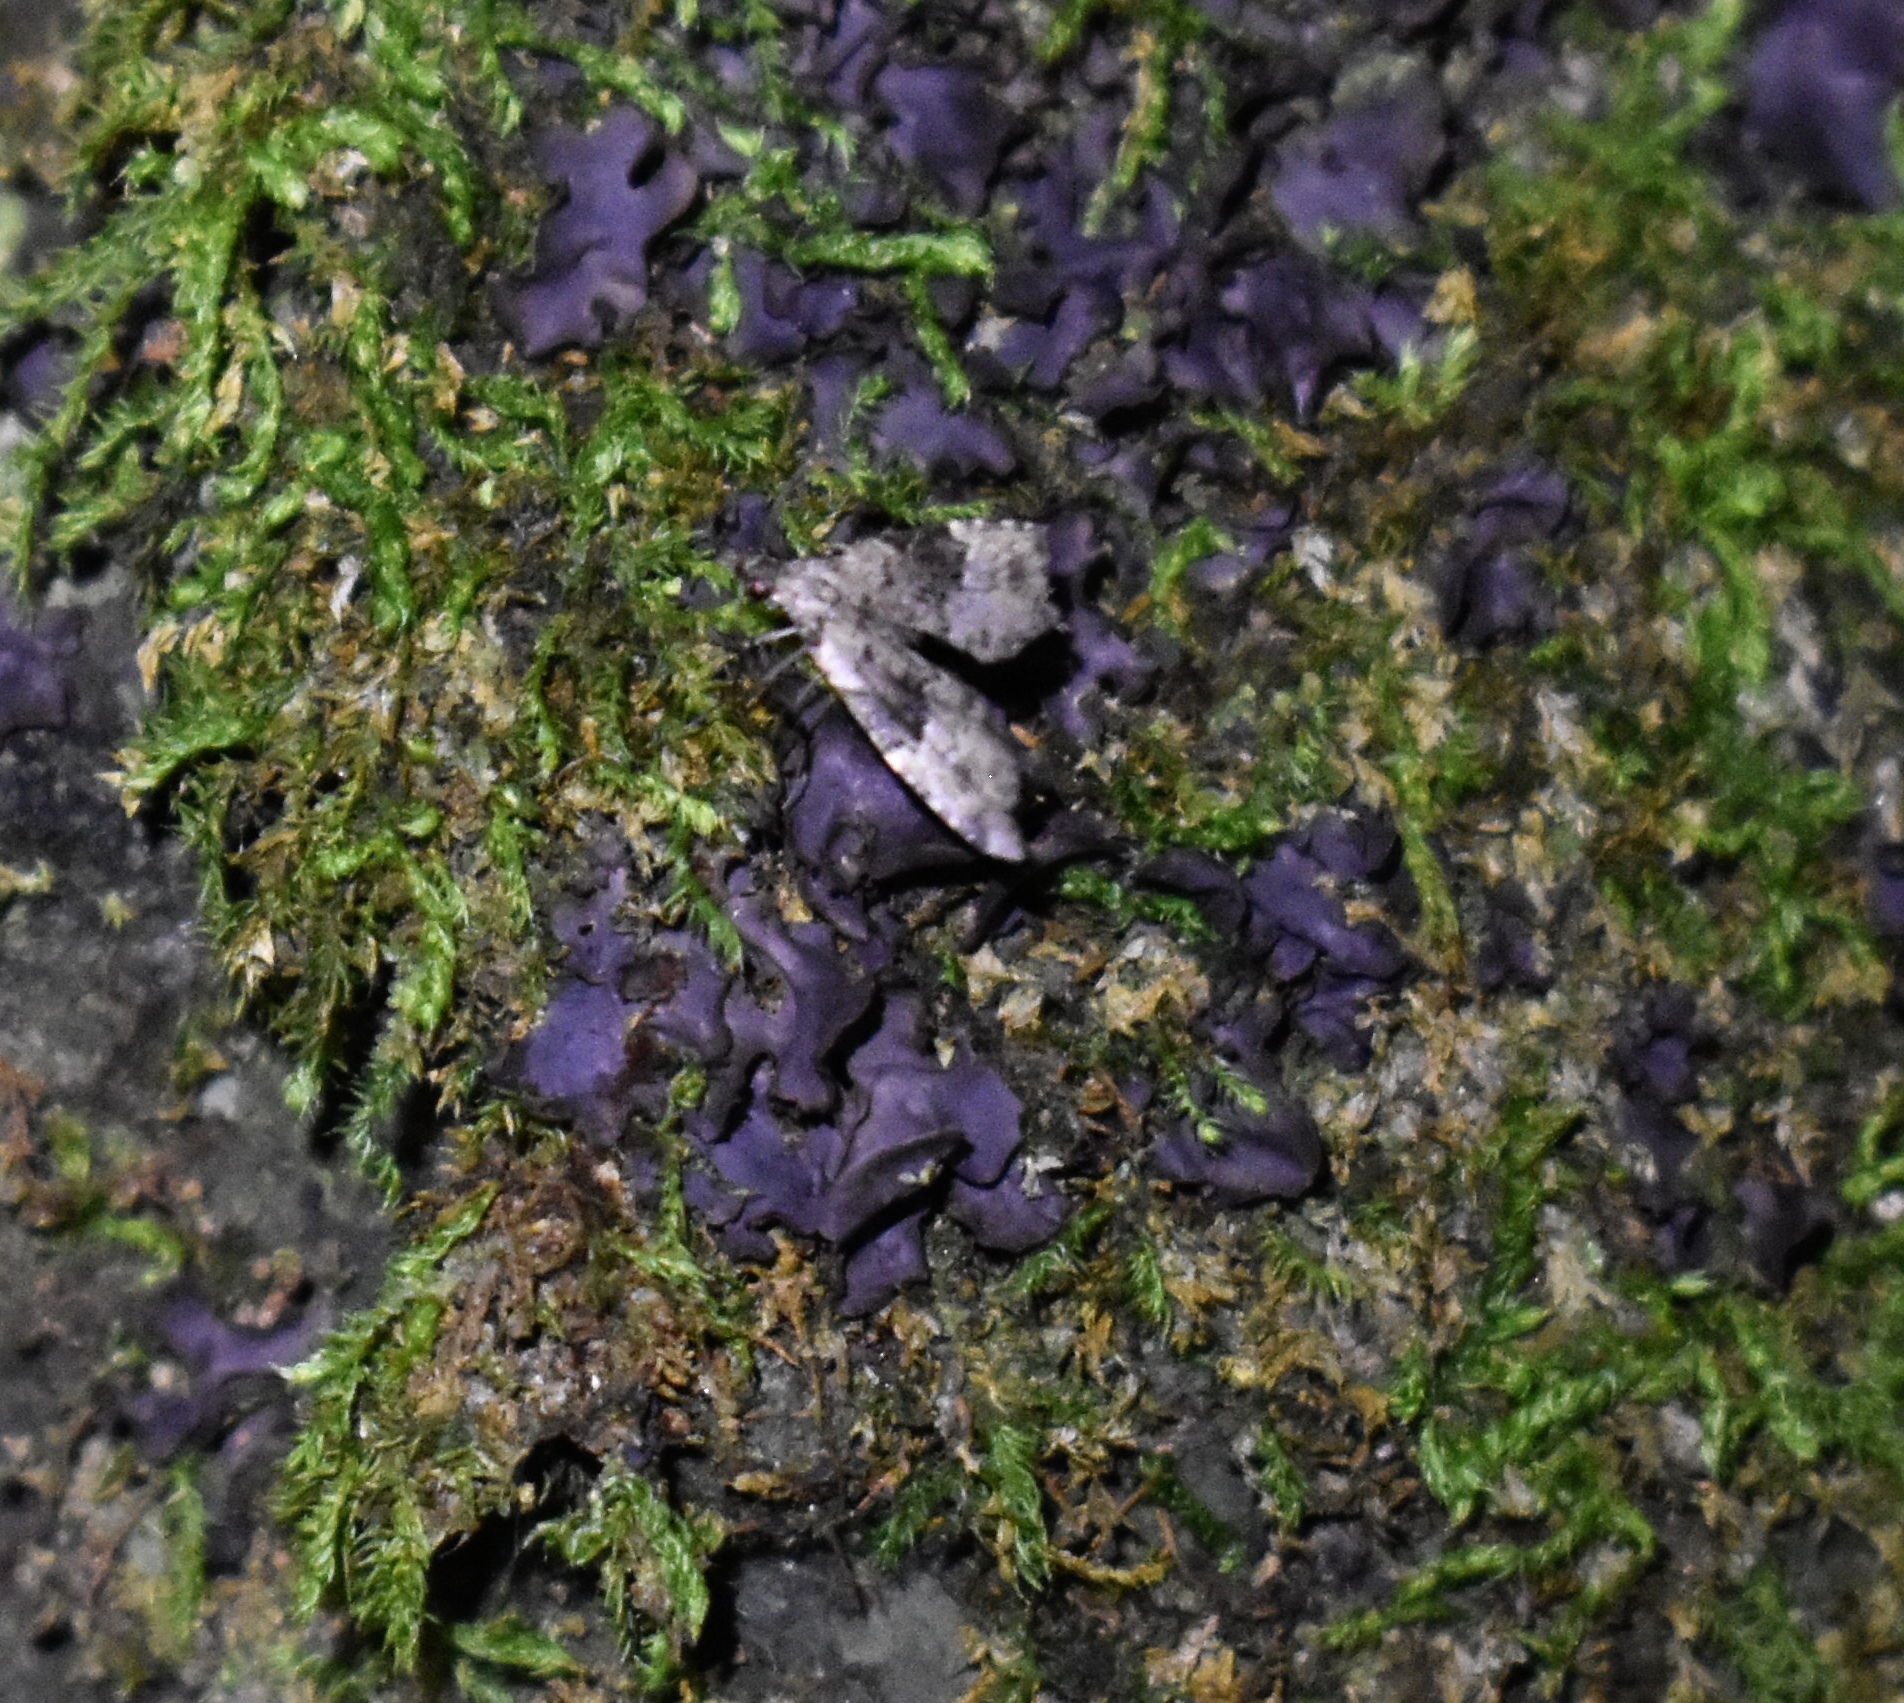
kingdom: Animalia
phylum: Arthropoda
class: Insecta
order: Lepidoptera
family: Erebidae
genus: Pseudoschrankia
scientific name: Pseudoschrankia brevipalpis
